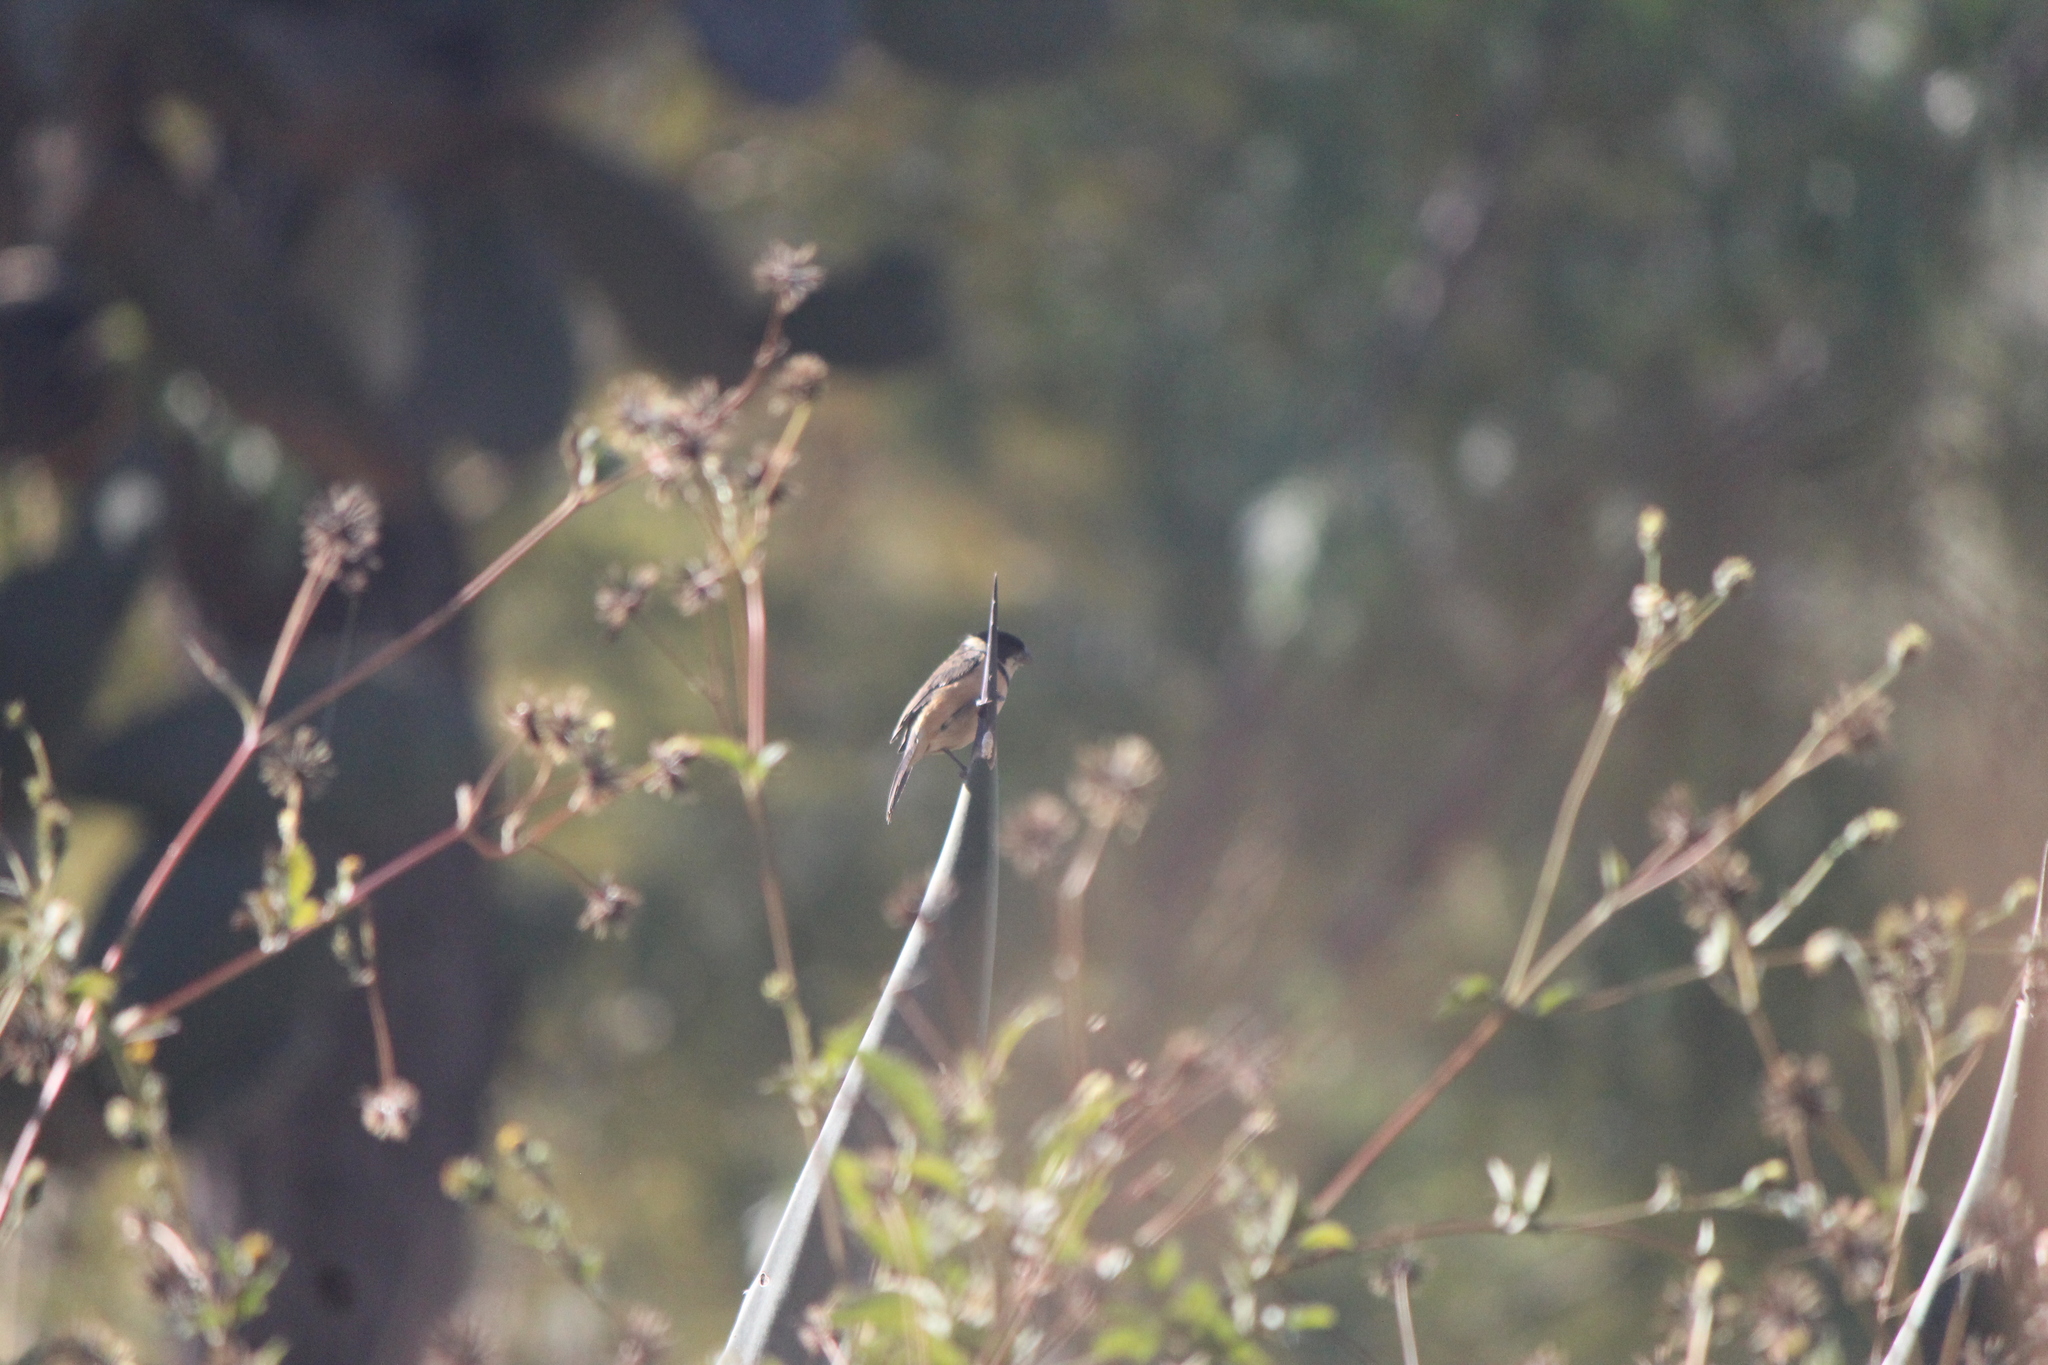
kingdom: Animalia
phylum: Chordata
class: Aves
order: Passeriformes
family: Thraupidae
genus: Sporophila
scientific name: Sporophila torqueola
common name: White-collared seedeater
